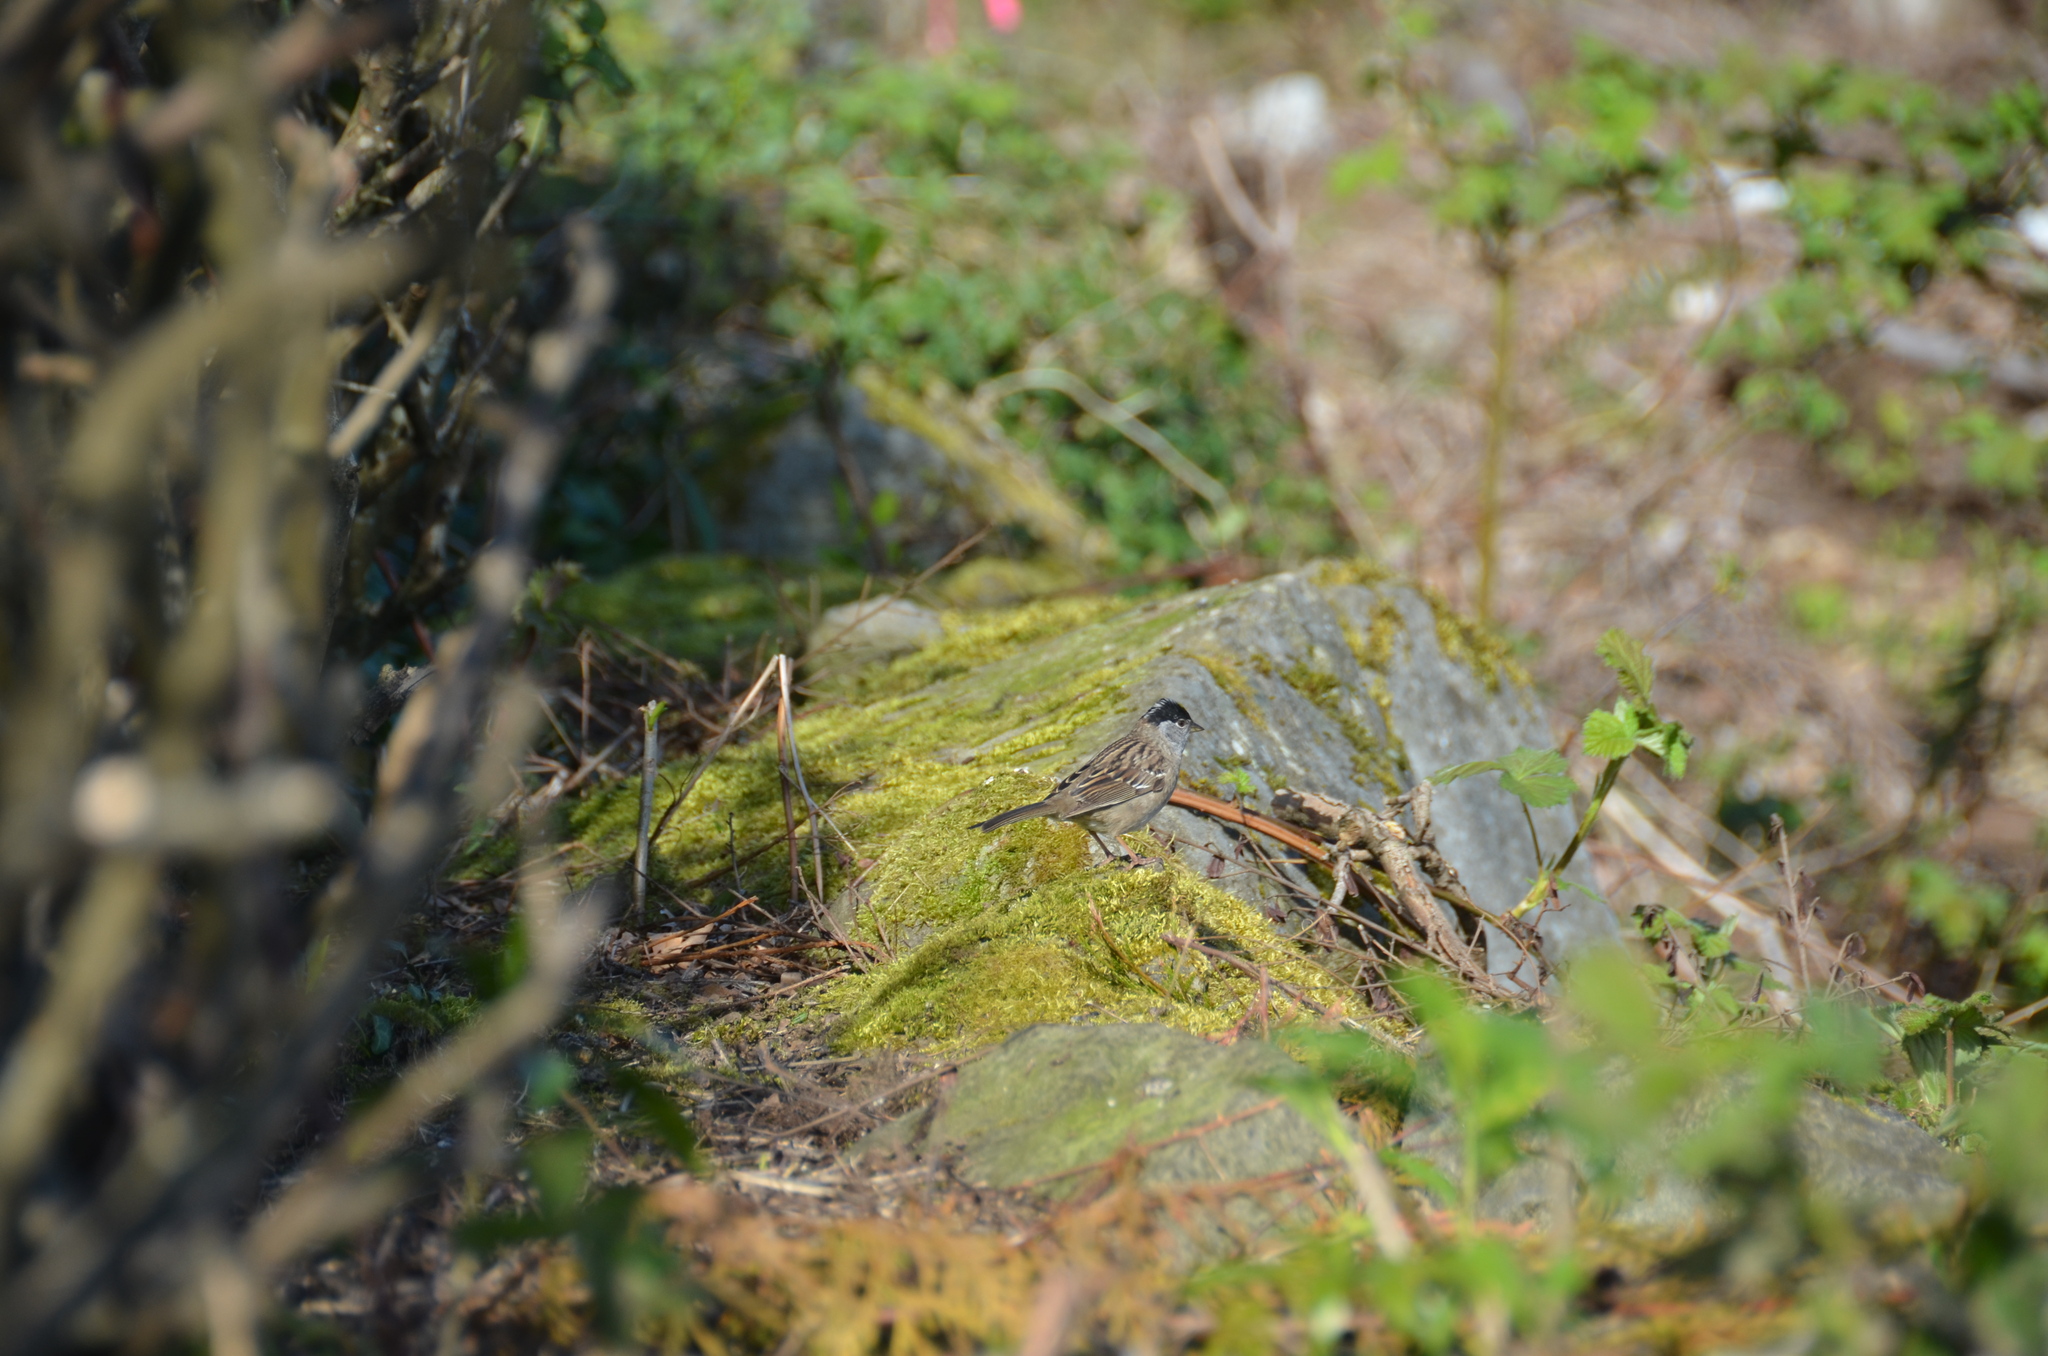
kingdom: Animalia
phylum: Chordata
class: Aves
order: Passeriformes
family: Passerellidae
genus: Zonotrichia
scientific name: Zonotrichia atricapilla
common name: Golden-crowned sparrow
